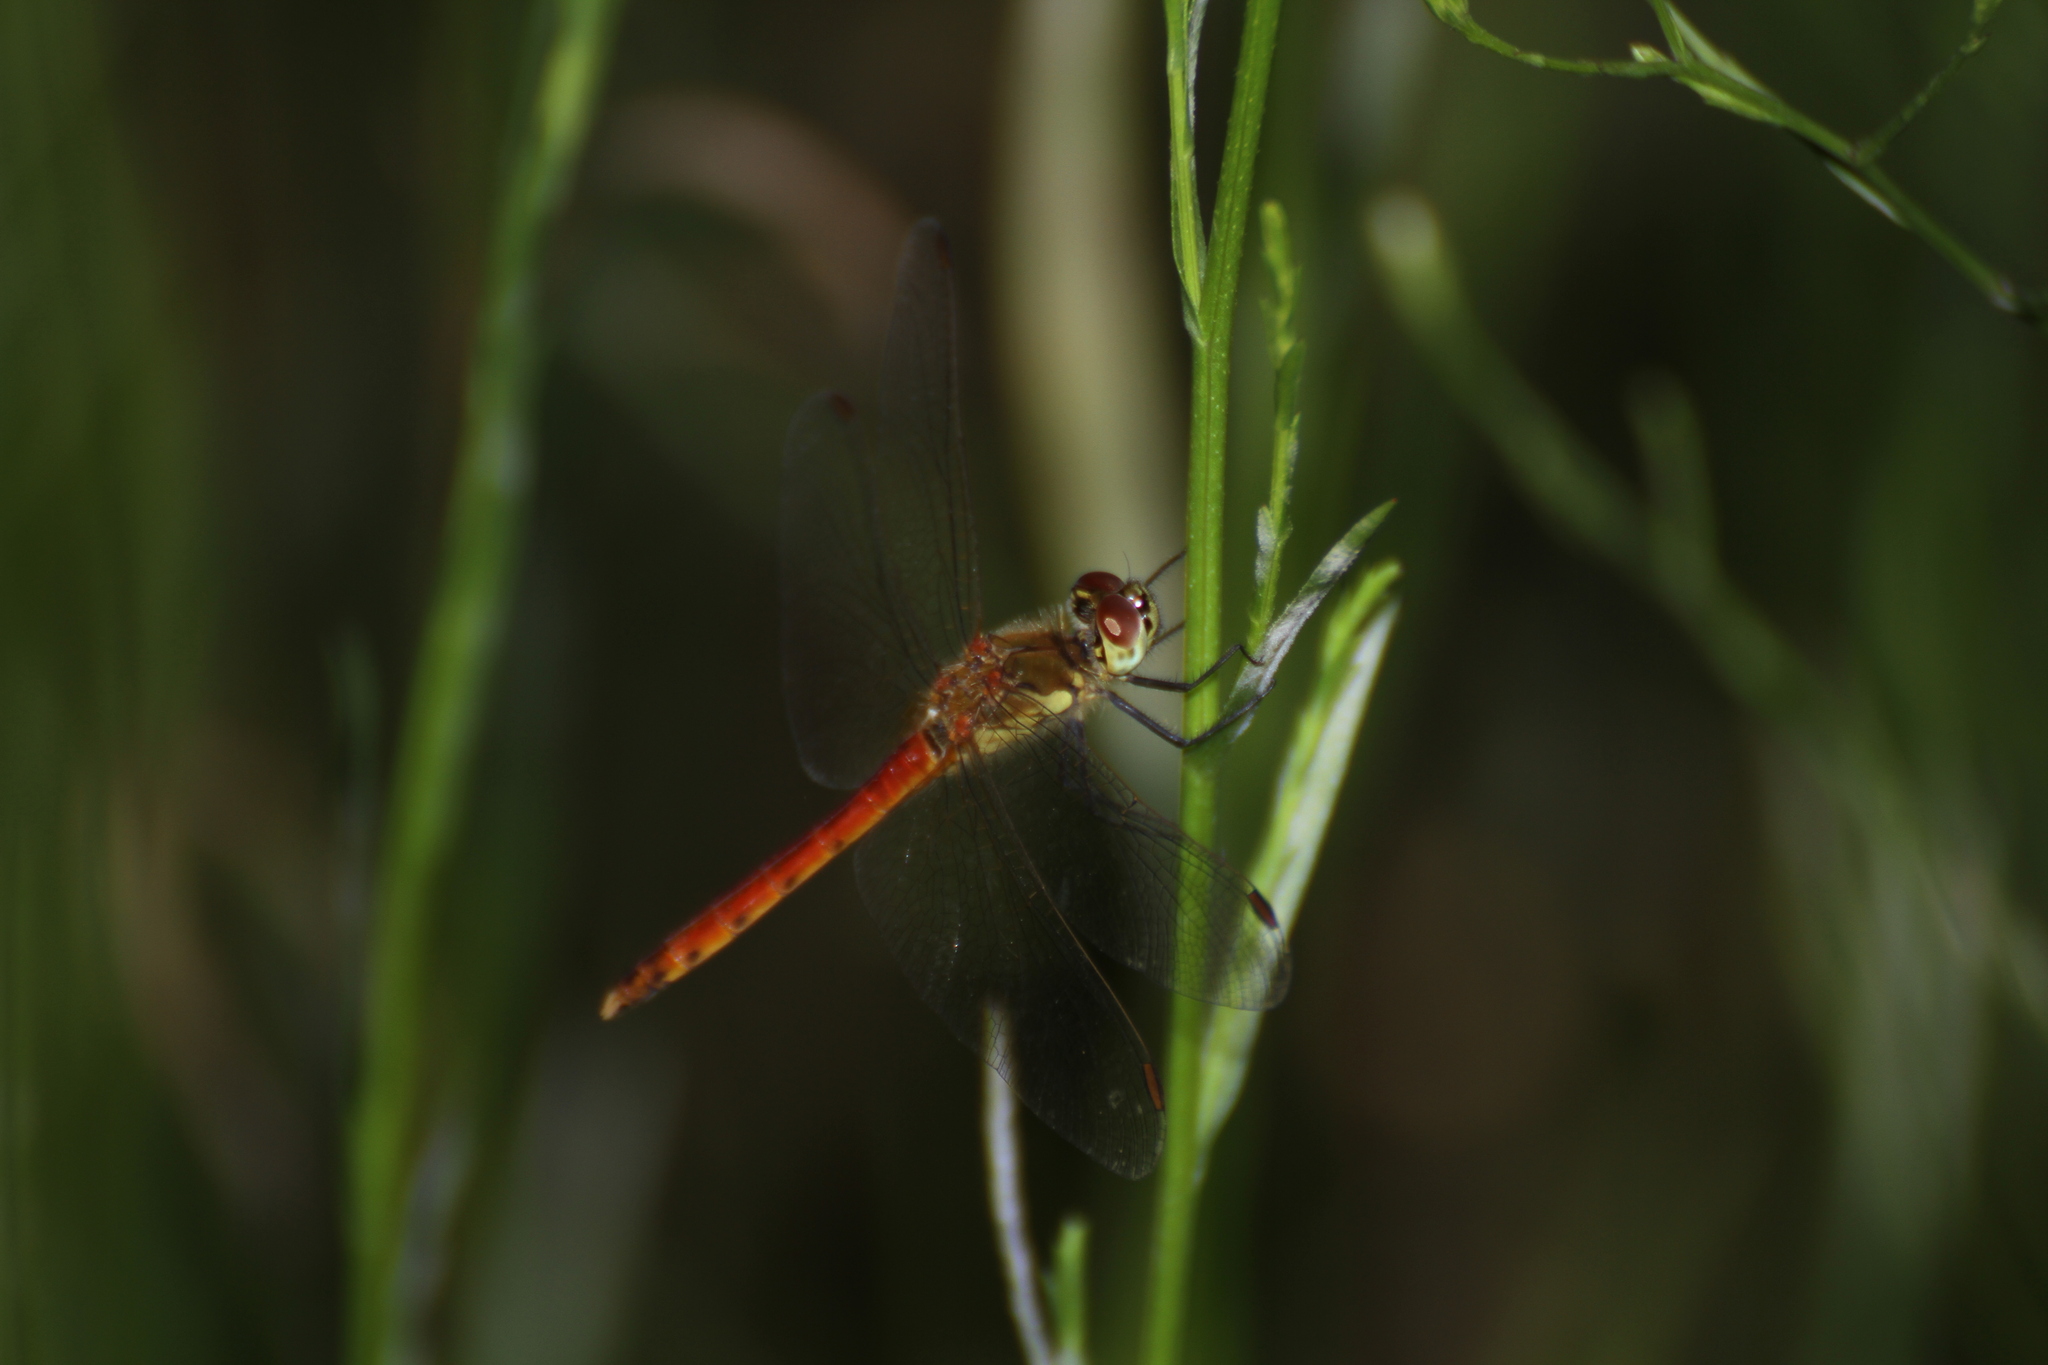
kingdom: Animalia
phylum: Arthropoda
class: Insecta
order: Odonata
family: Libellulidae
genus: Sympetrum
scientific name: Sympetrum depressiusculum
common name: Spotted darter
